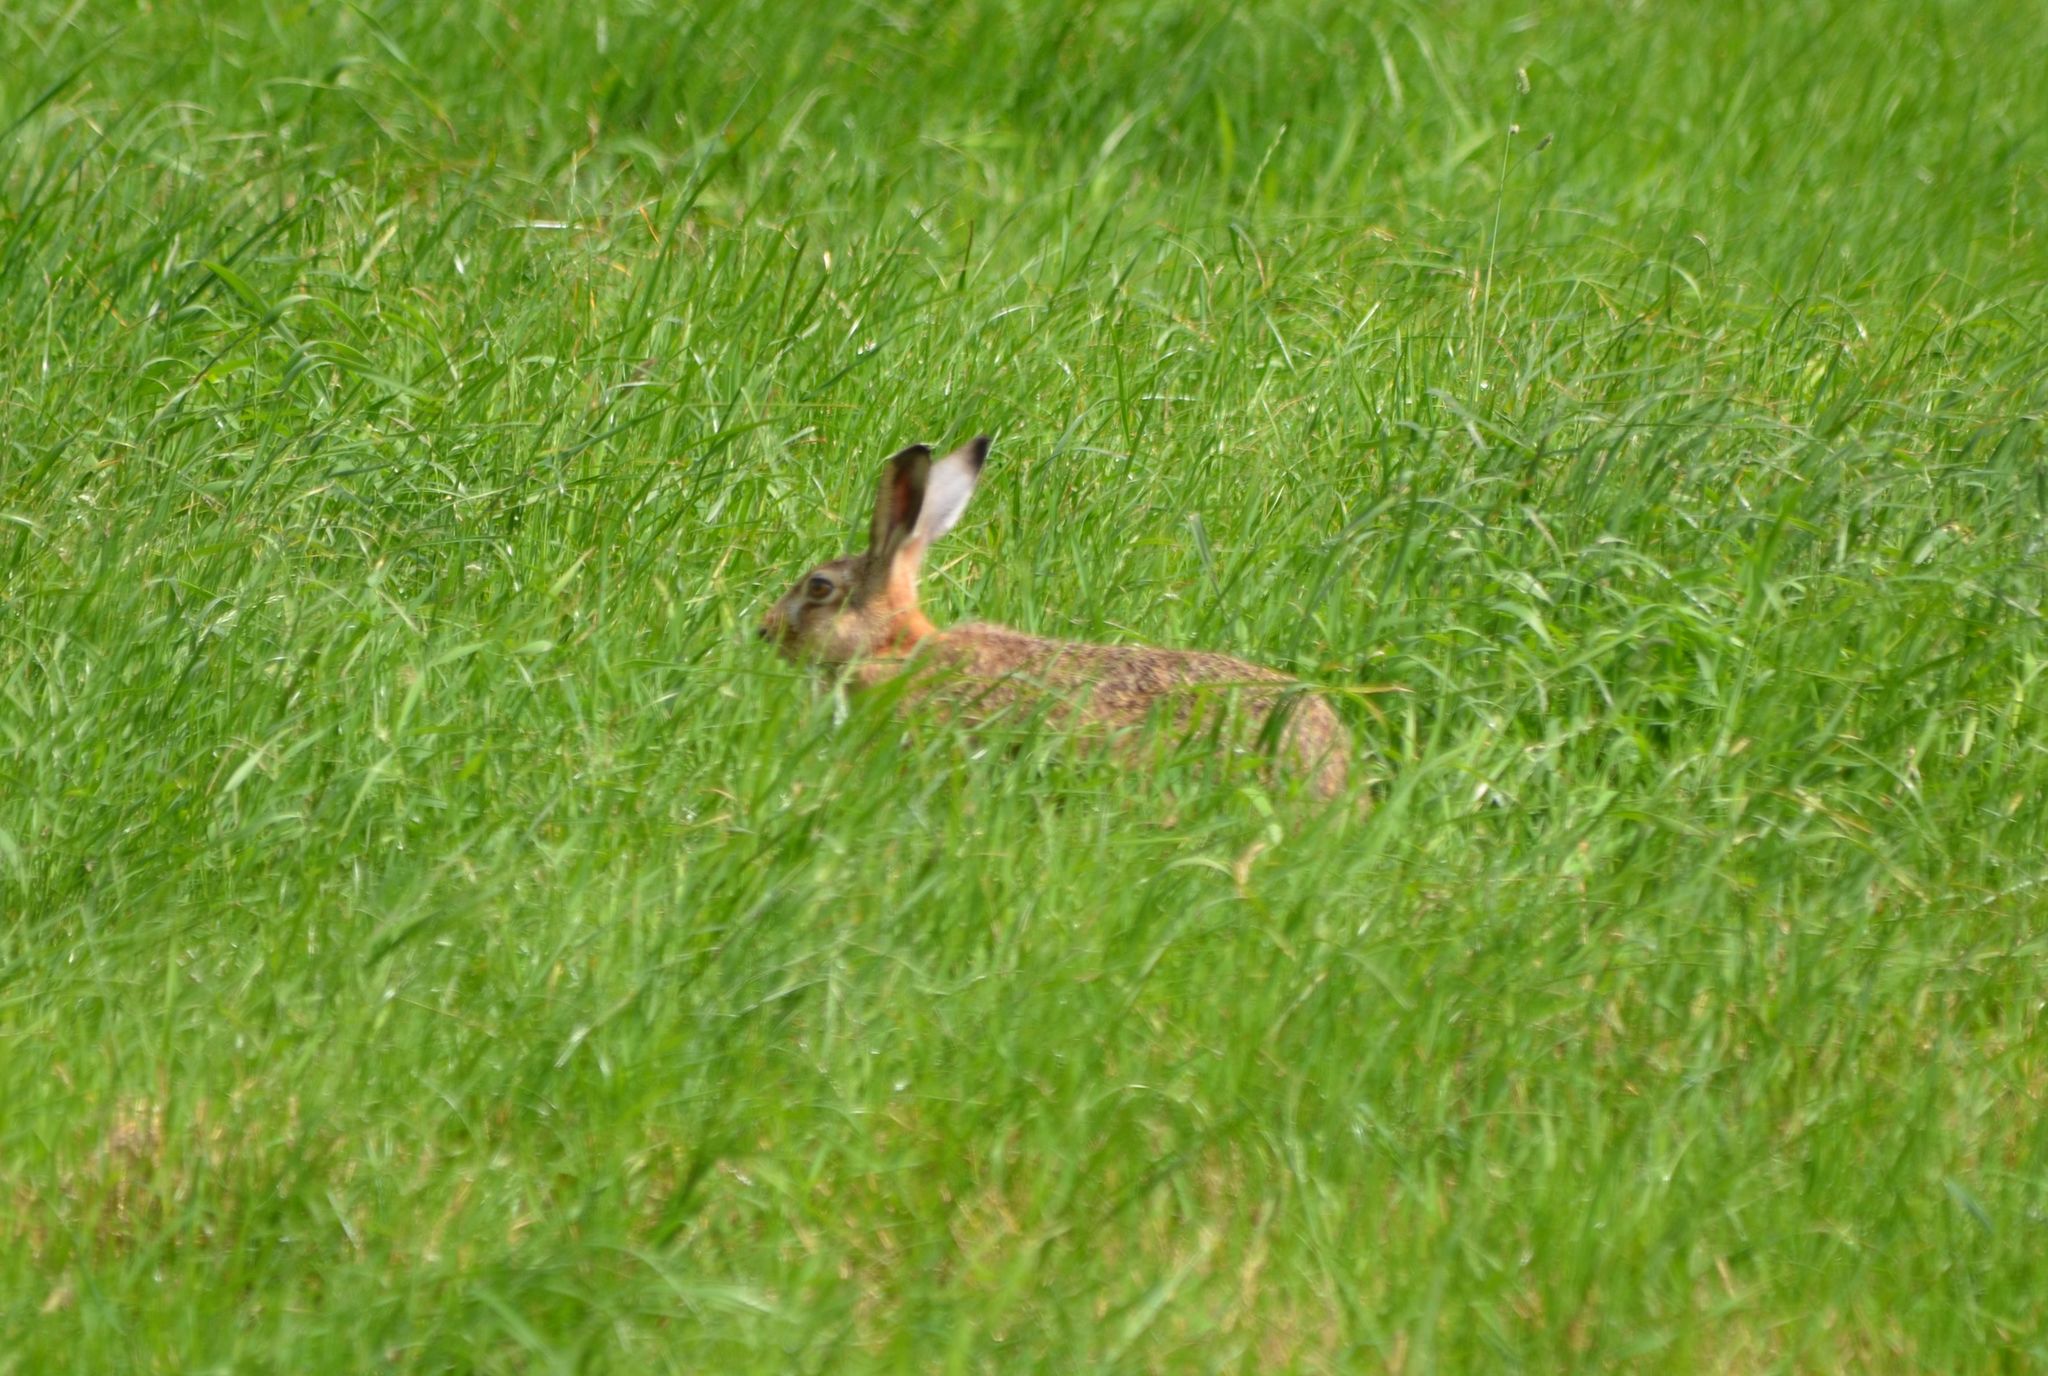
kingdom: Animalia
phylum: Chordata
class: Mammalia
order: Lagomorpha
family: Leporidae
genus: Lepus
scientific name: Lepus europaeus
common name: European hare
